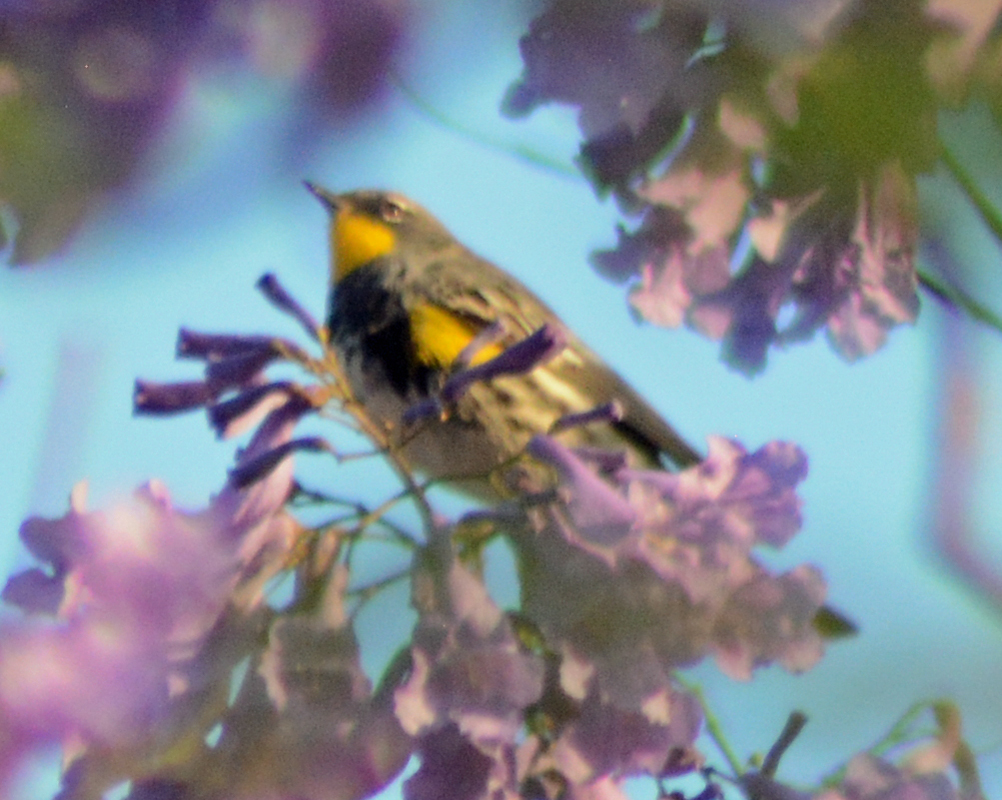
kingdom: Animalia
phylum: Chordata
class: Aves
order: Passeriformes
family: Parulidae
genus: Setophaga
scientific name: Setophaga auduboni
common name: Audubon's warbler
